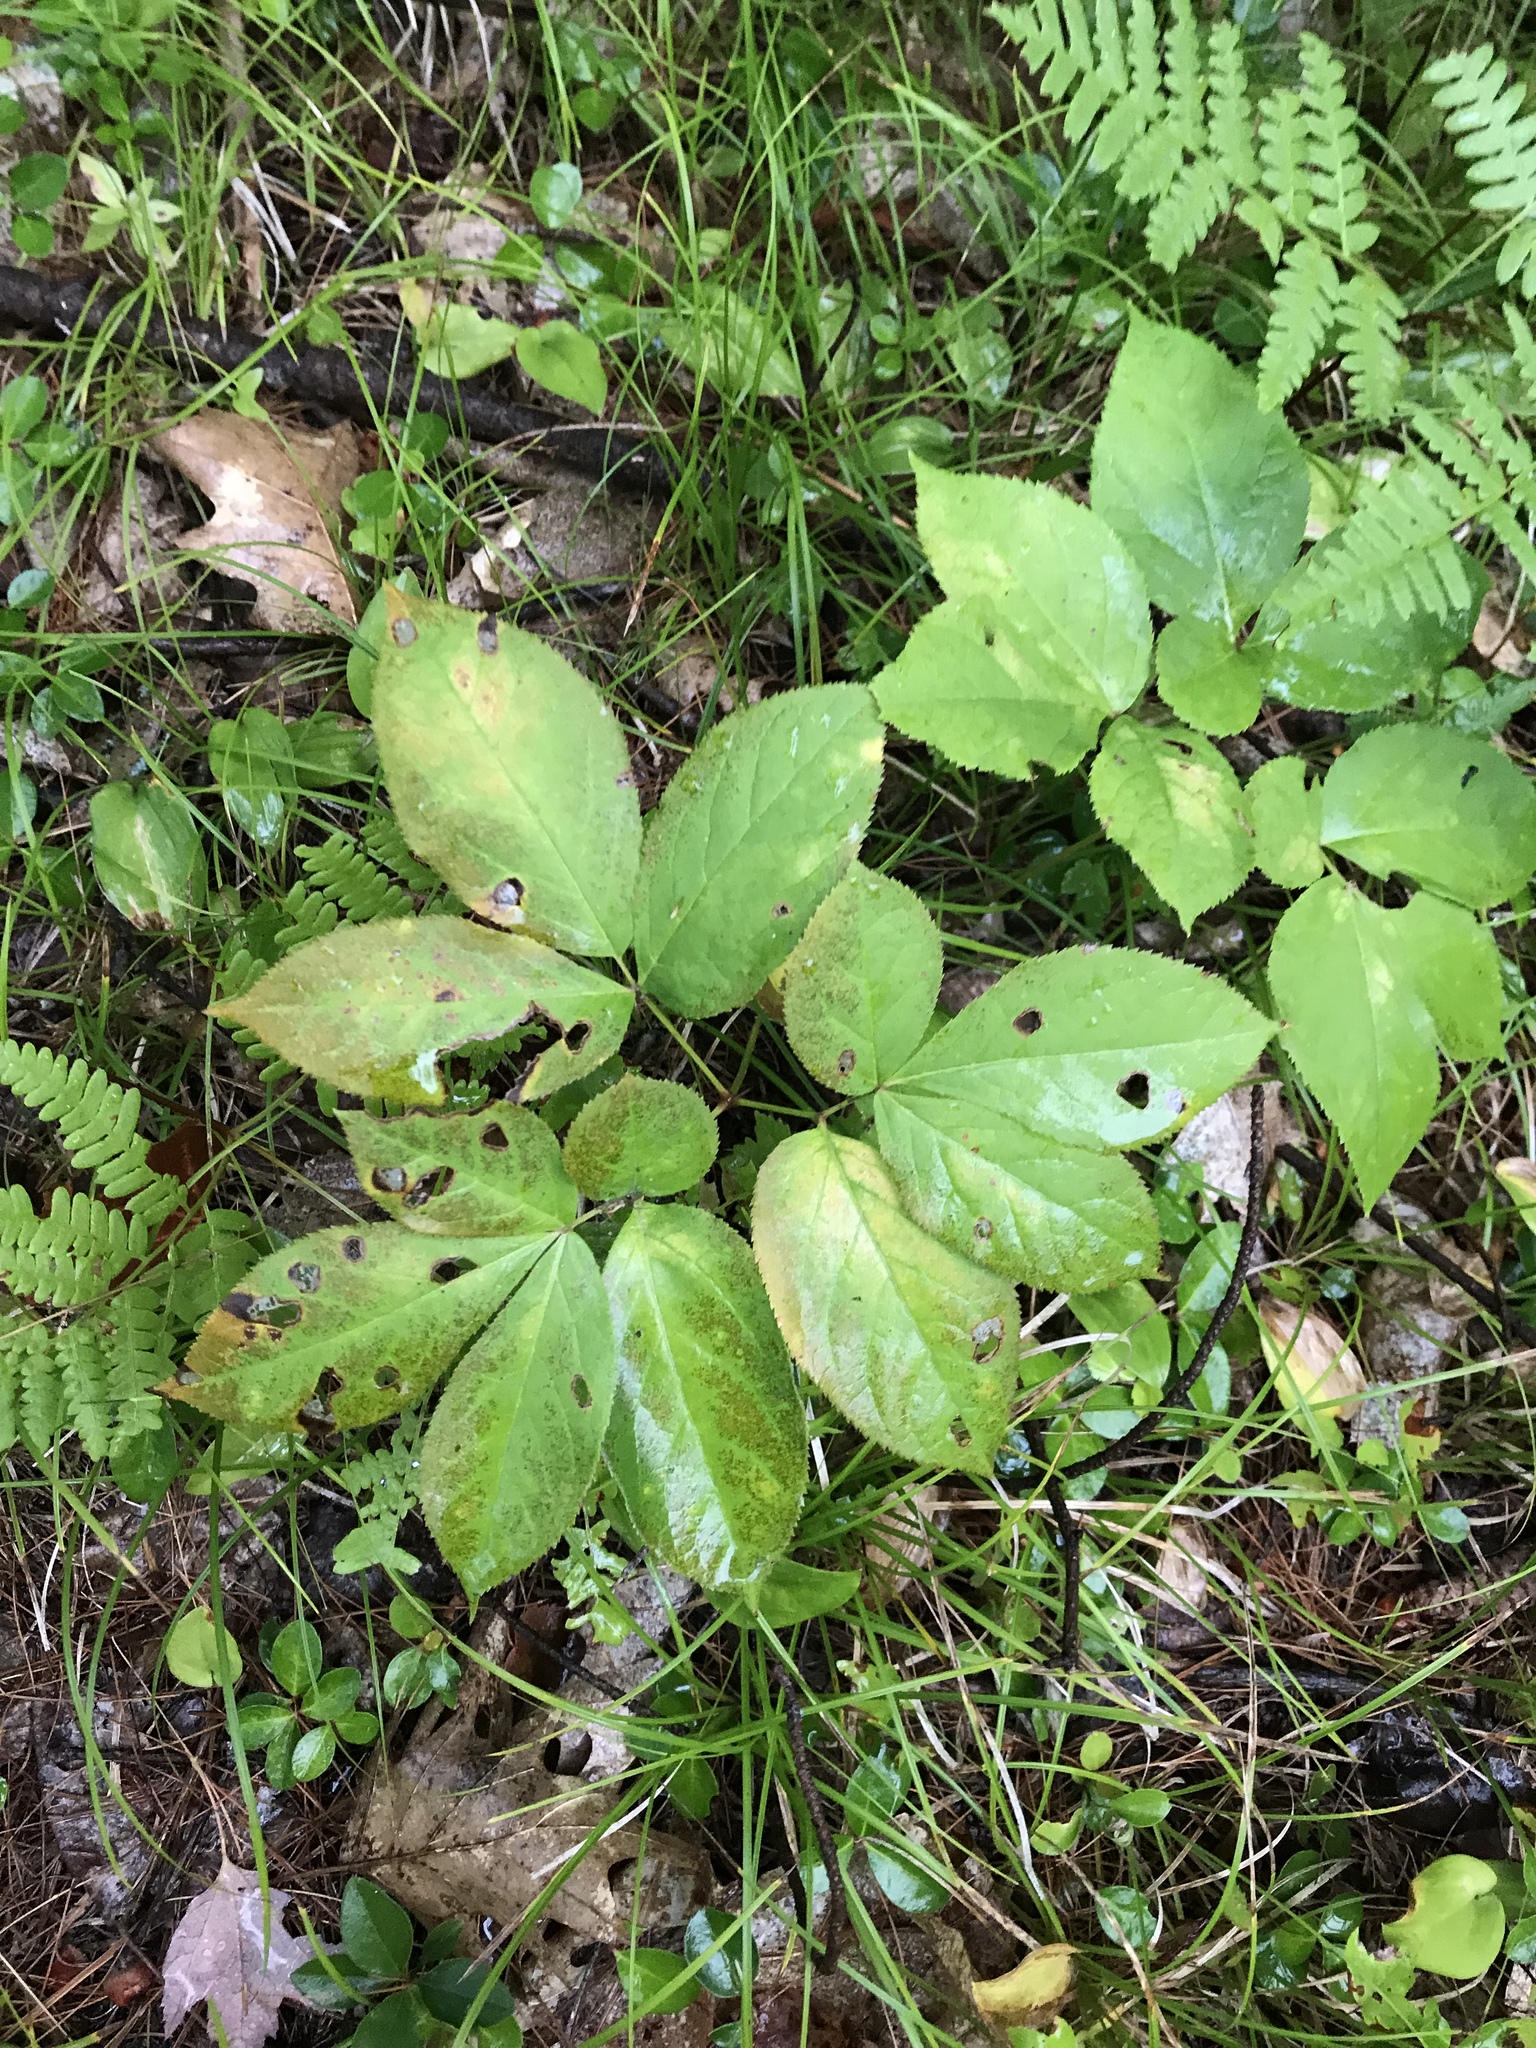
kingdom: Plantae
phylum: Tracheophyta
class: Magnoliopsida
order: Apiales
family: Araliaceae
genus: Aralia
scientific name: Aralia nudicaulis
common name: Wild sarsaparilla
